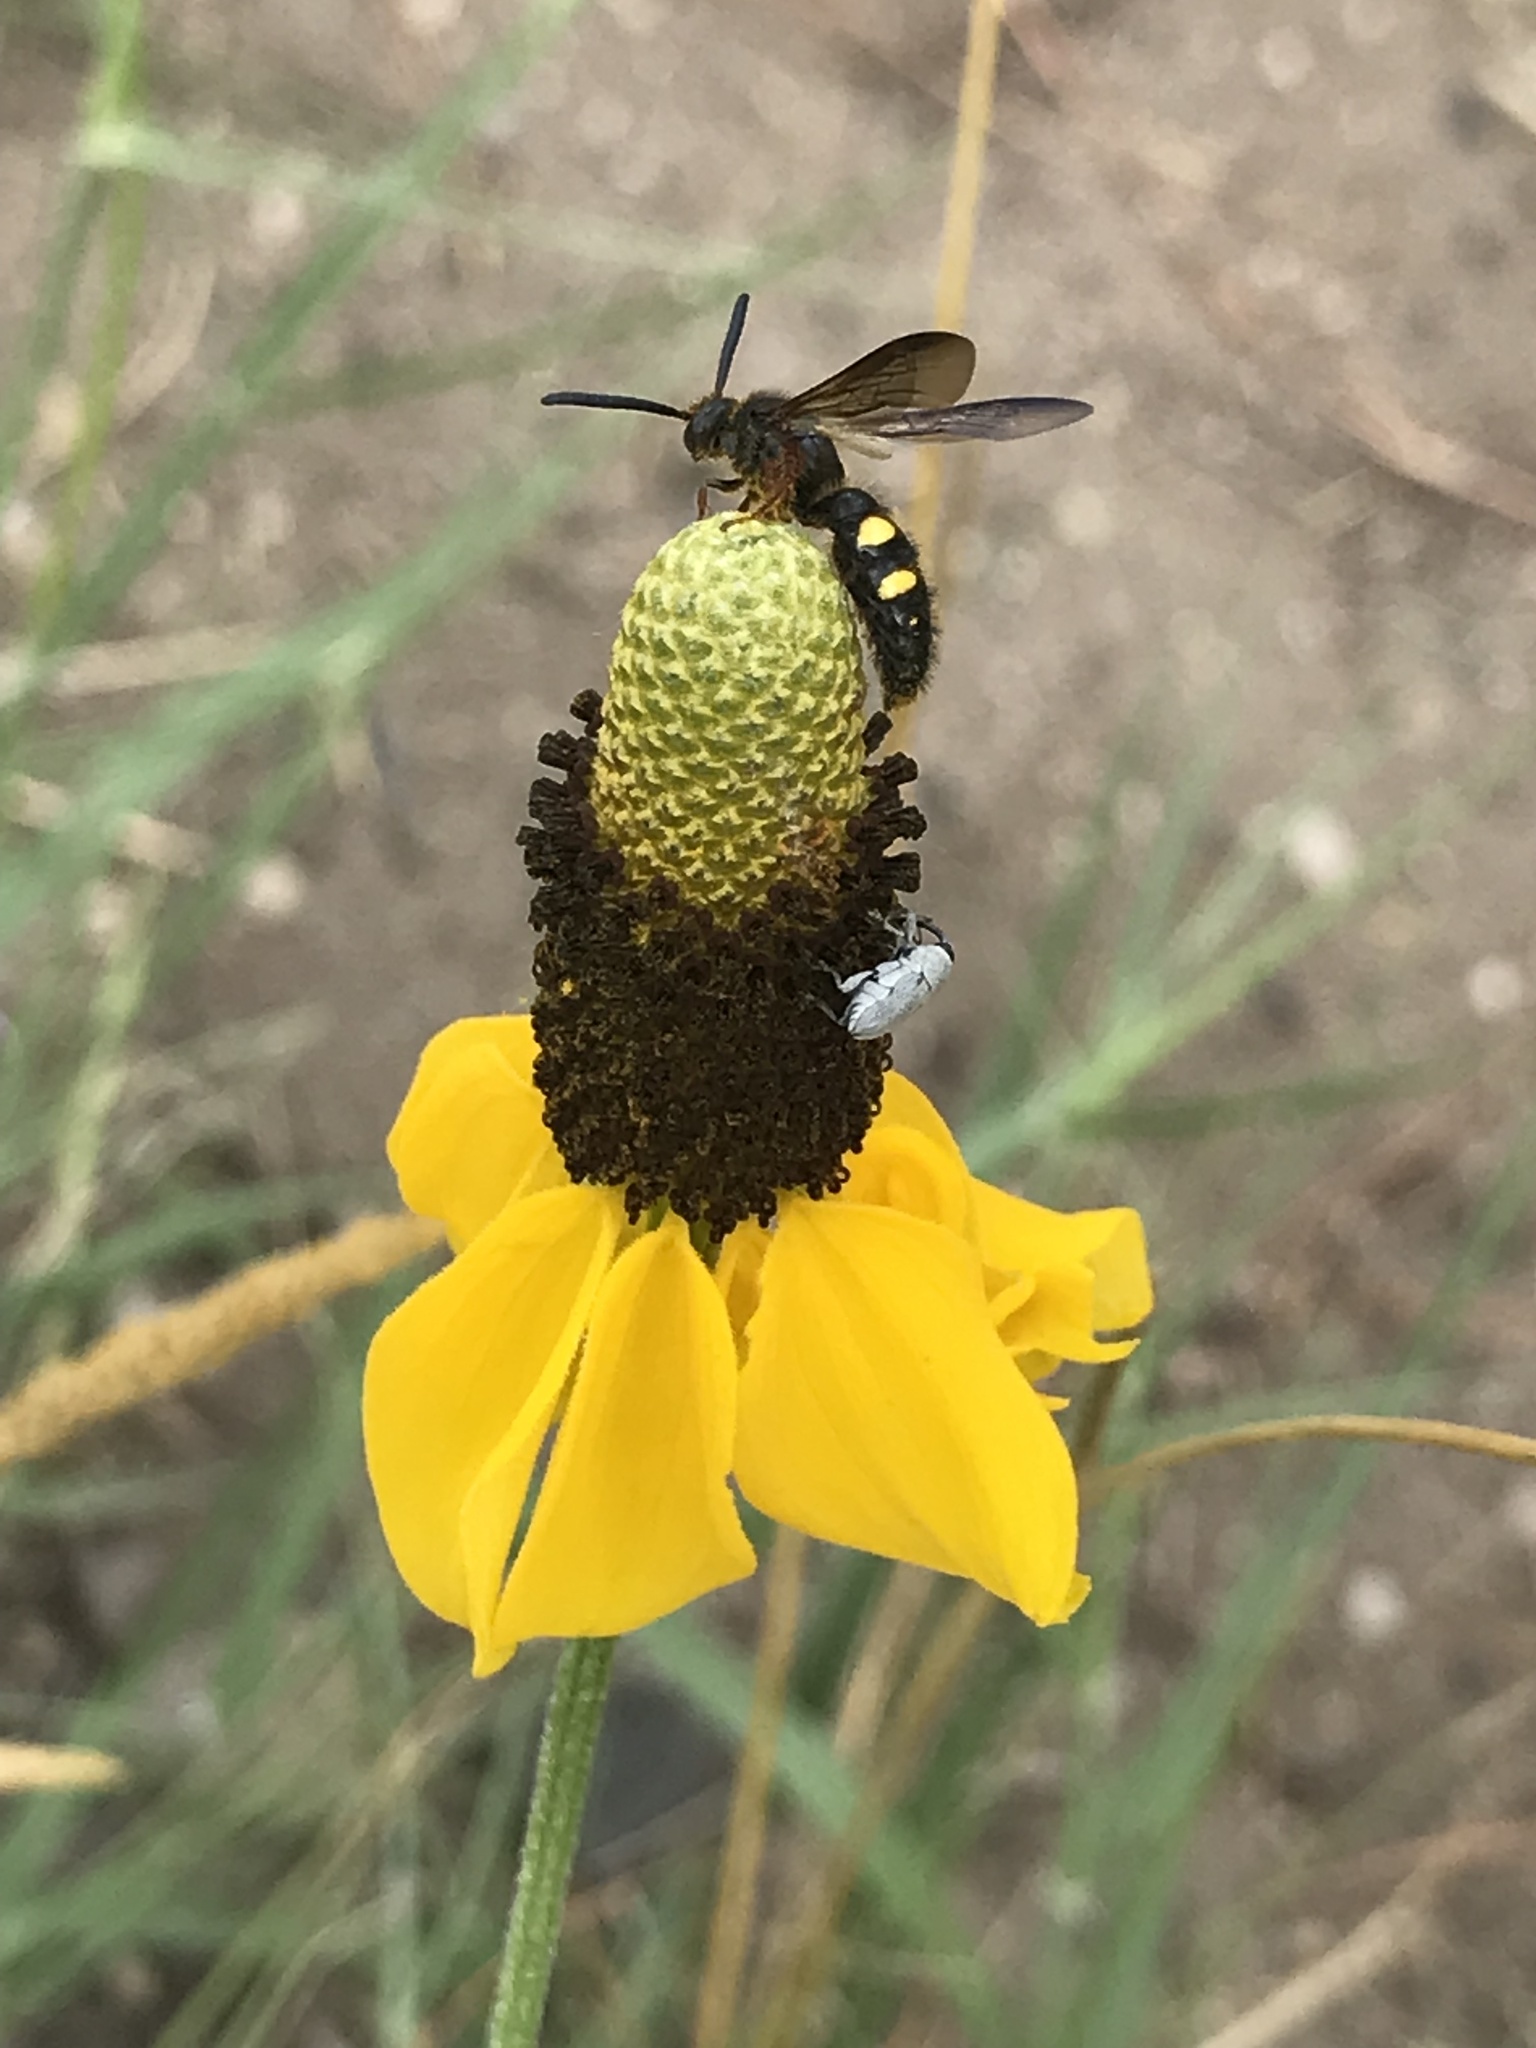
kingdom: Animalia
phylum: Arthropoda
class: Insecta
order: Hymenoptera
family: Scoliidae
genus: Scolia
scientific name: Scolia nobilitata
